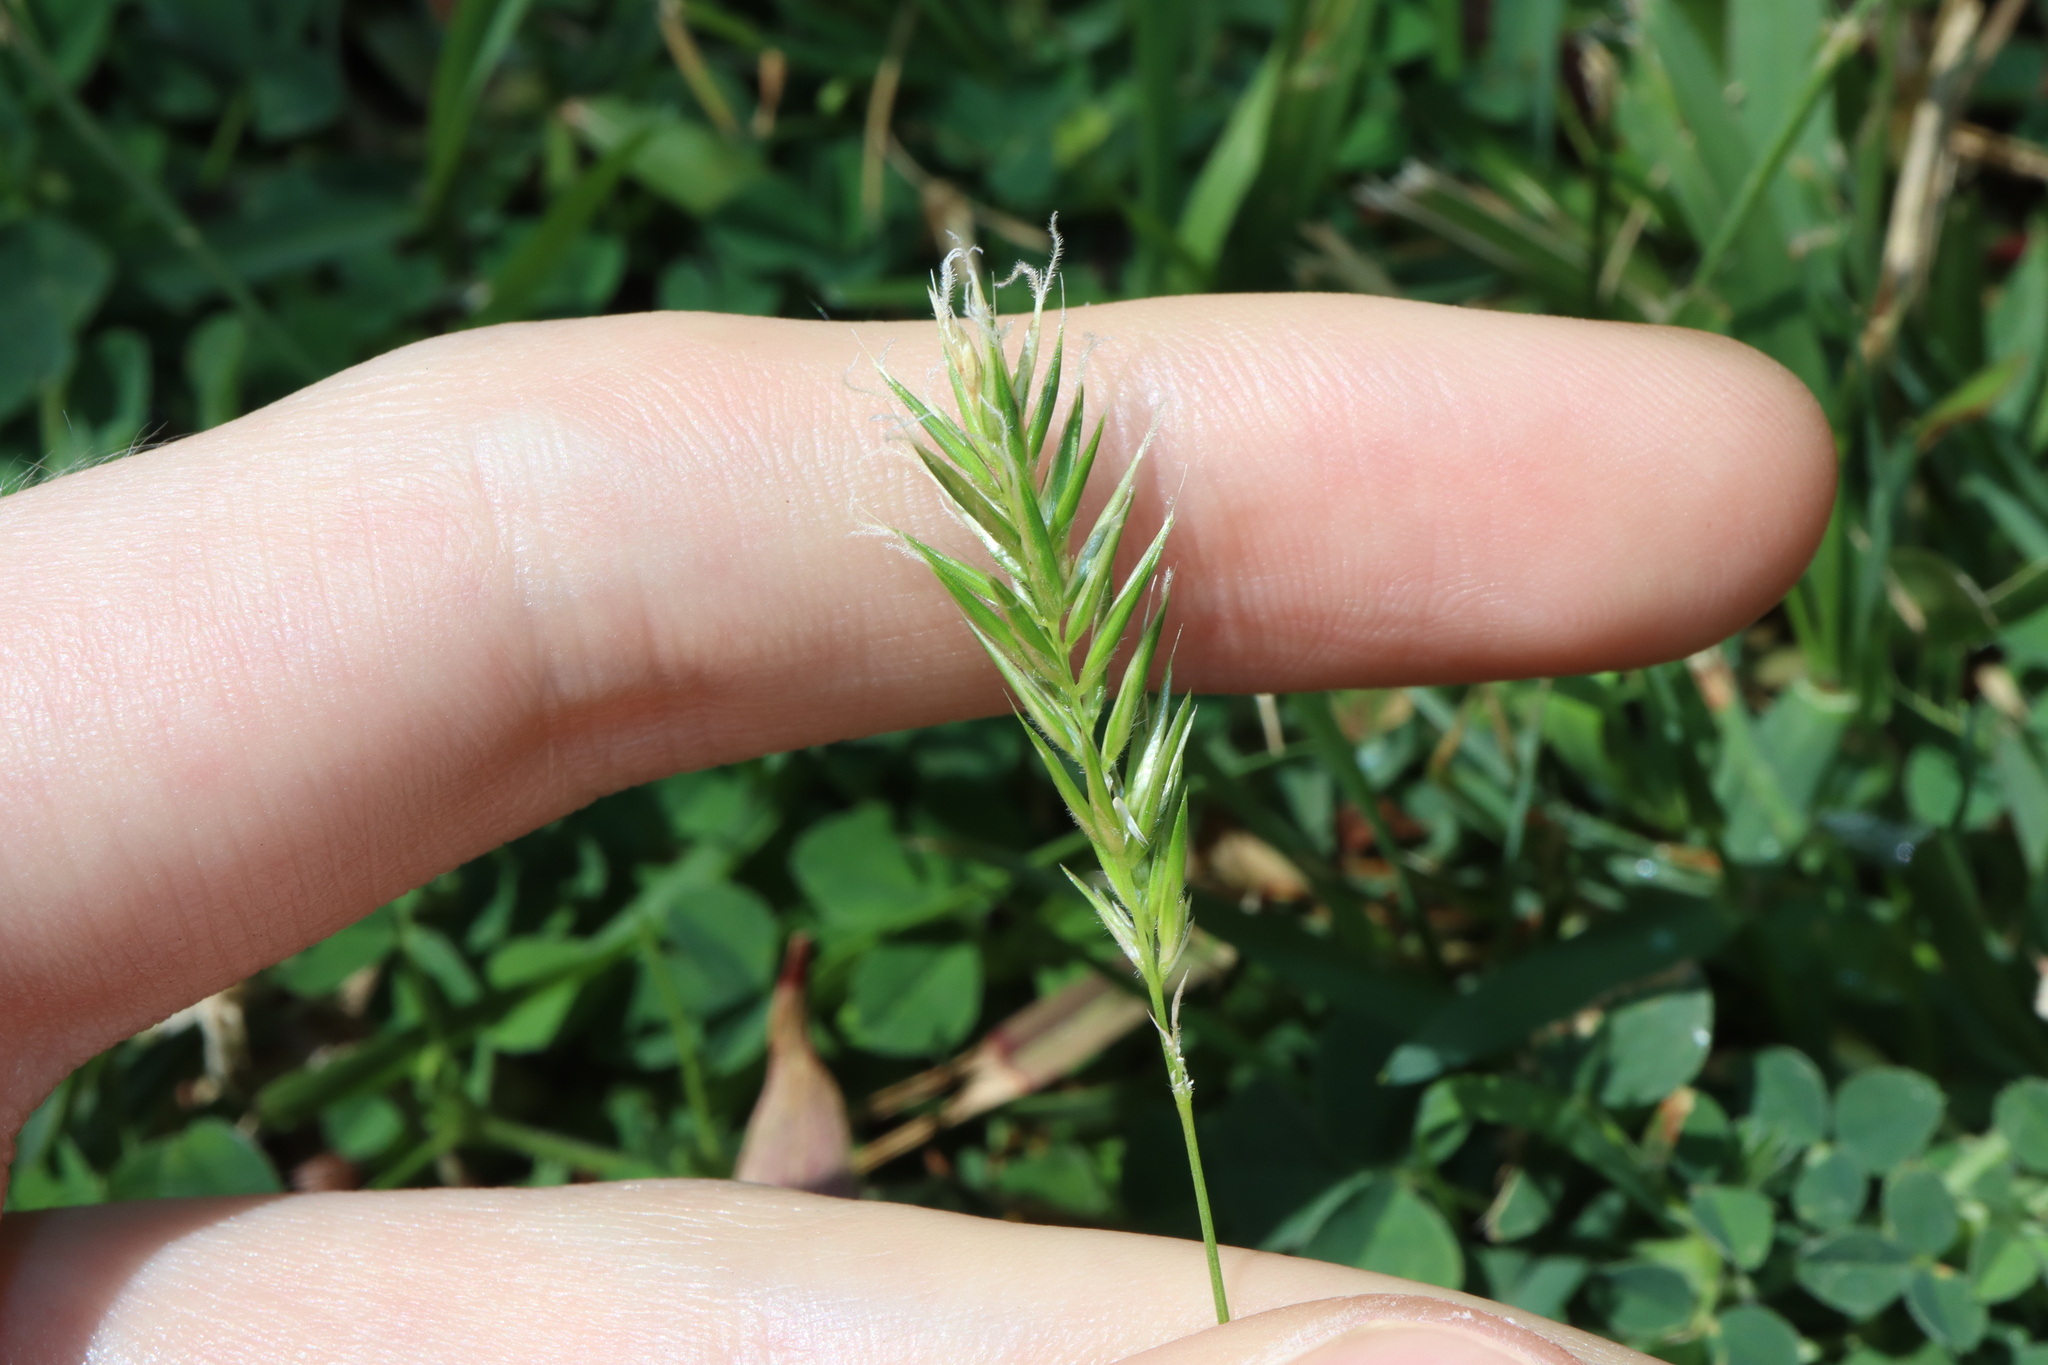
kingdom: Plantae
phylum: Tracheophyta
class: Liliopsida
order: Poales
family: Poaceae
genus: Anthoxanthum
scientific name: Anthoxanthum odoratum
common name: Sweet vernalgrass
